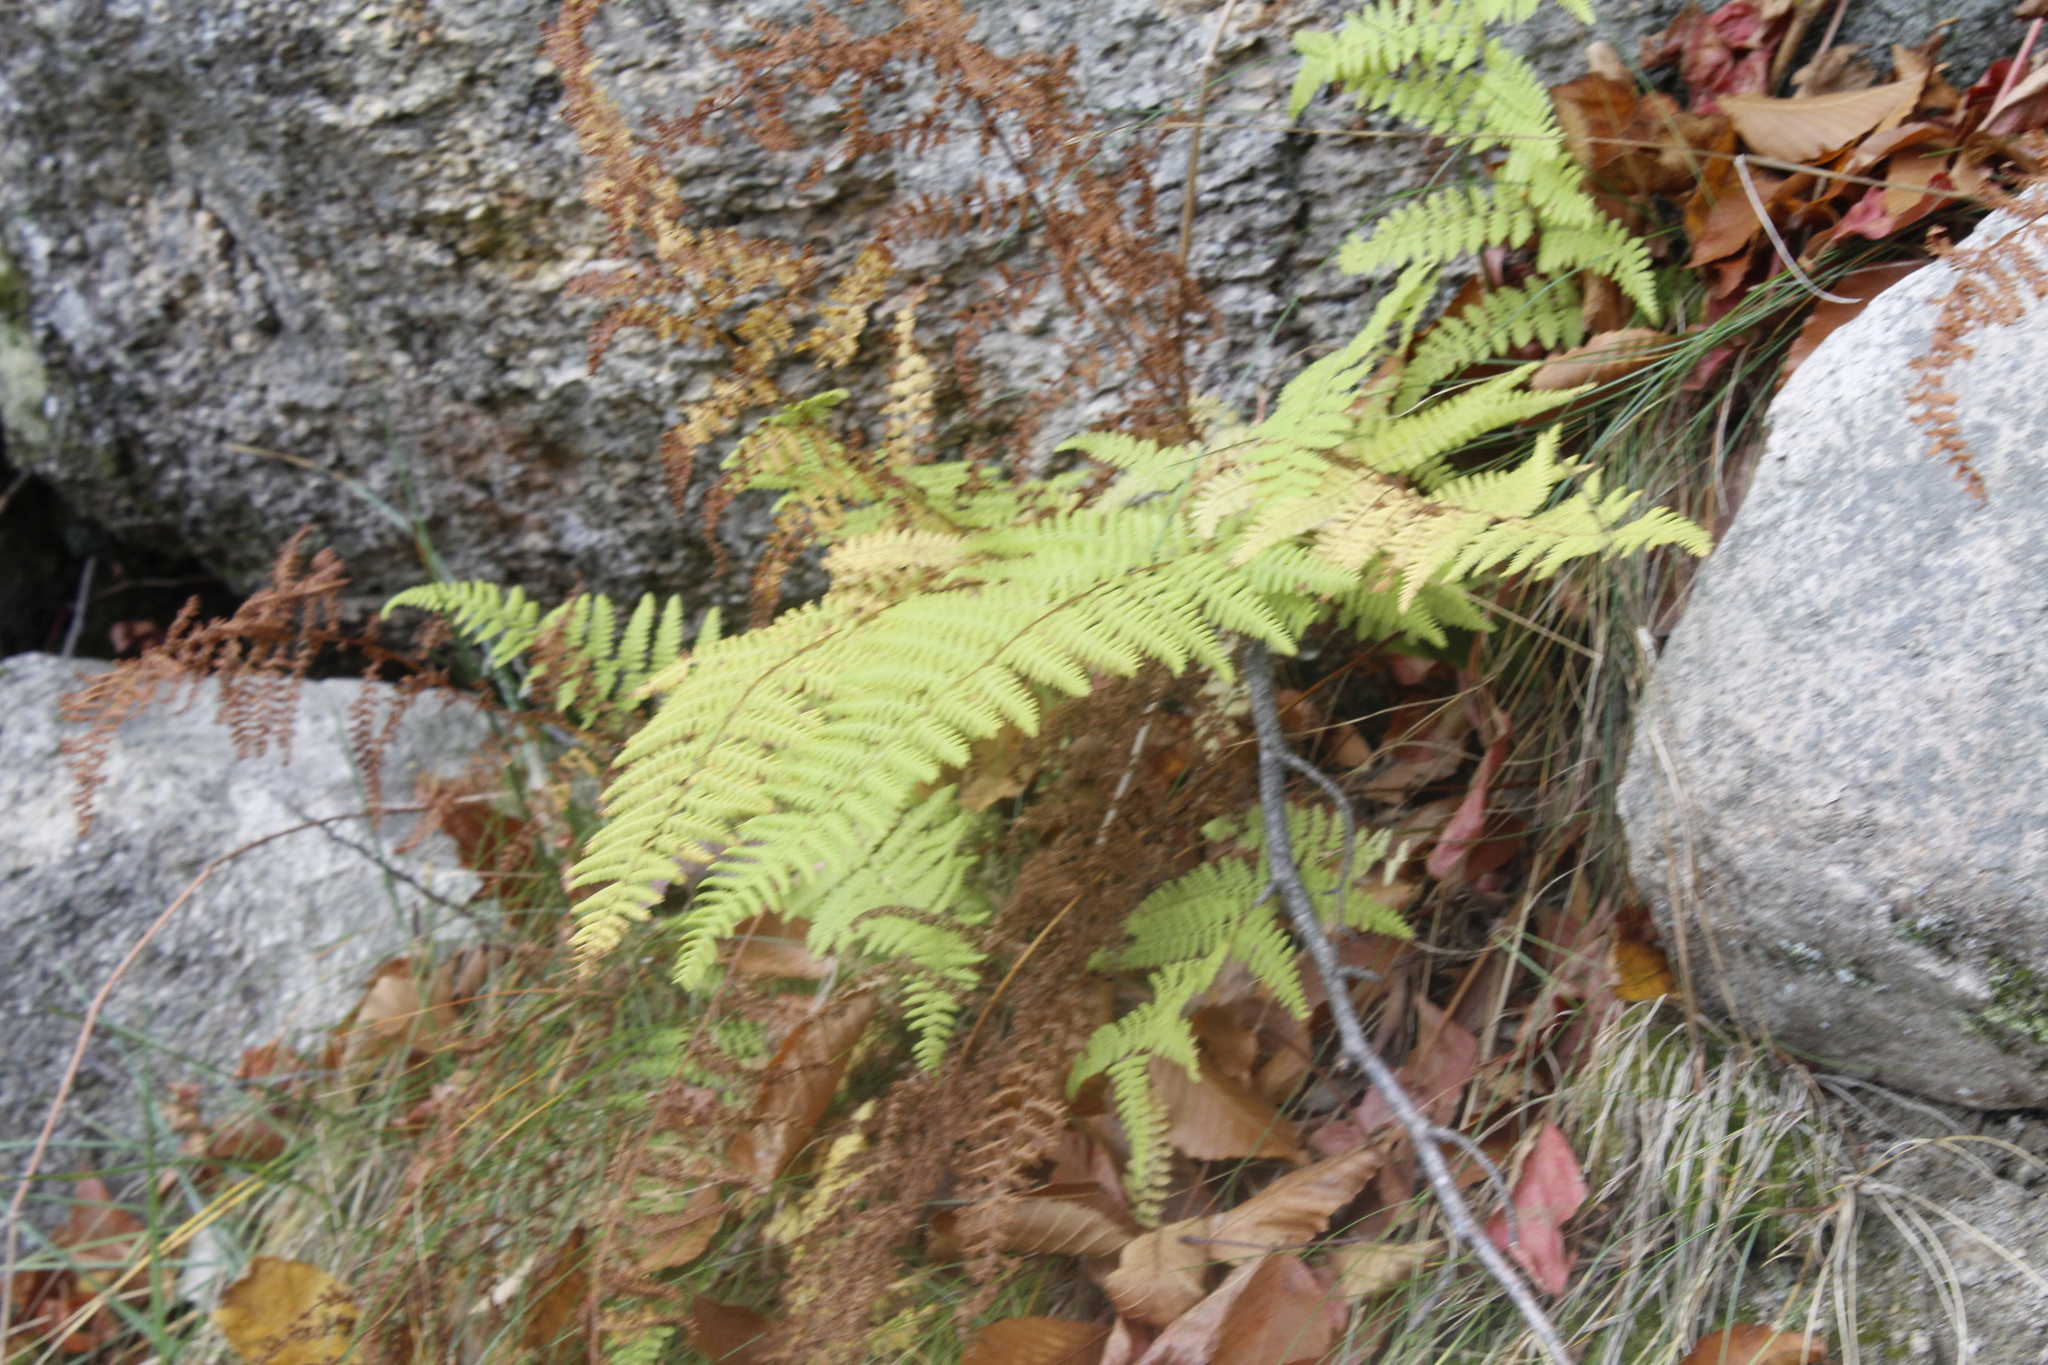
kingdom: Plantae
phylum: Tracheophyta
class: Polypodiopsida
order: Polypodiales
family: Dennstaedtiaceae
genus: Sitobolium
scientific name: Sitobolium punctilobum
